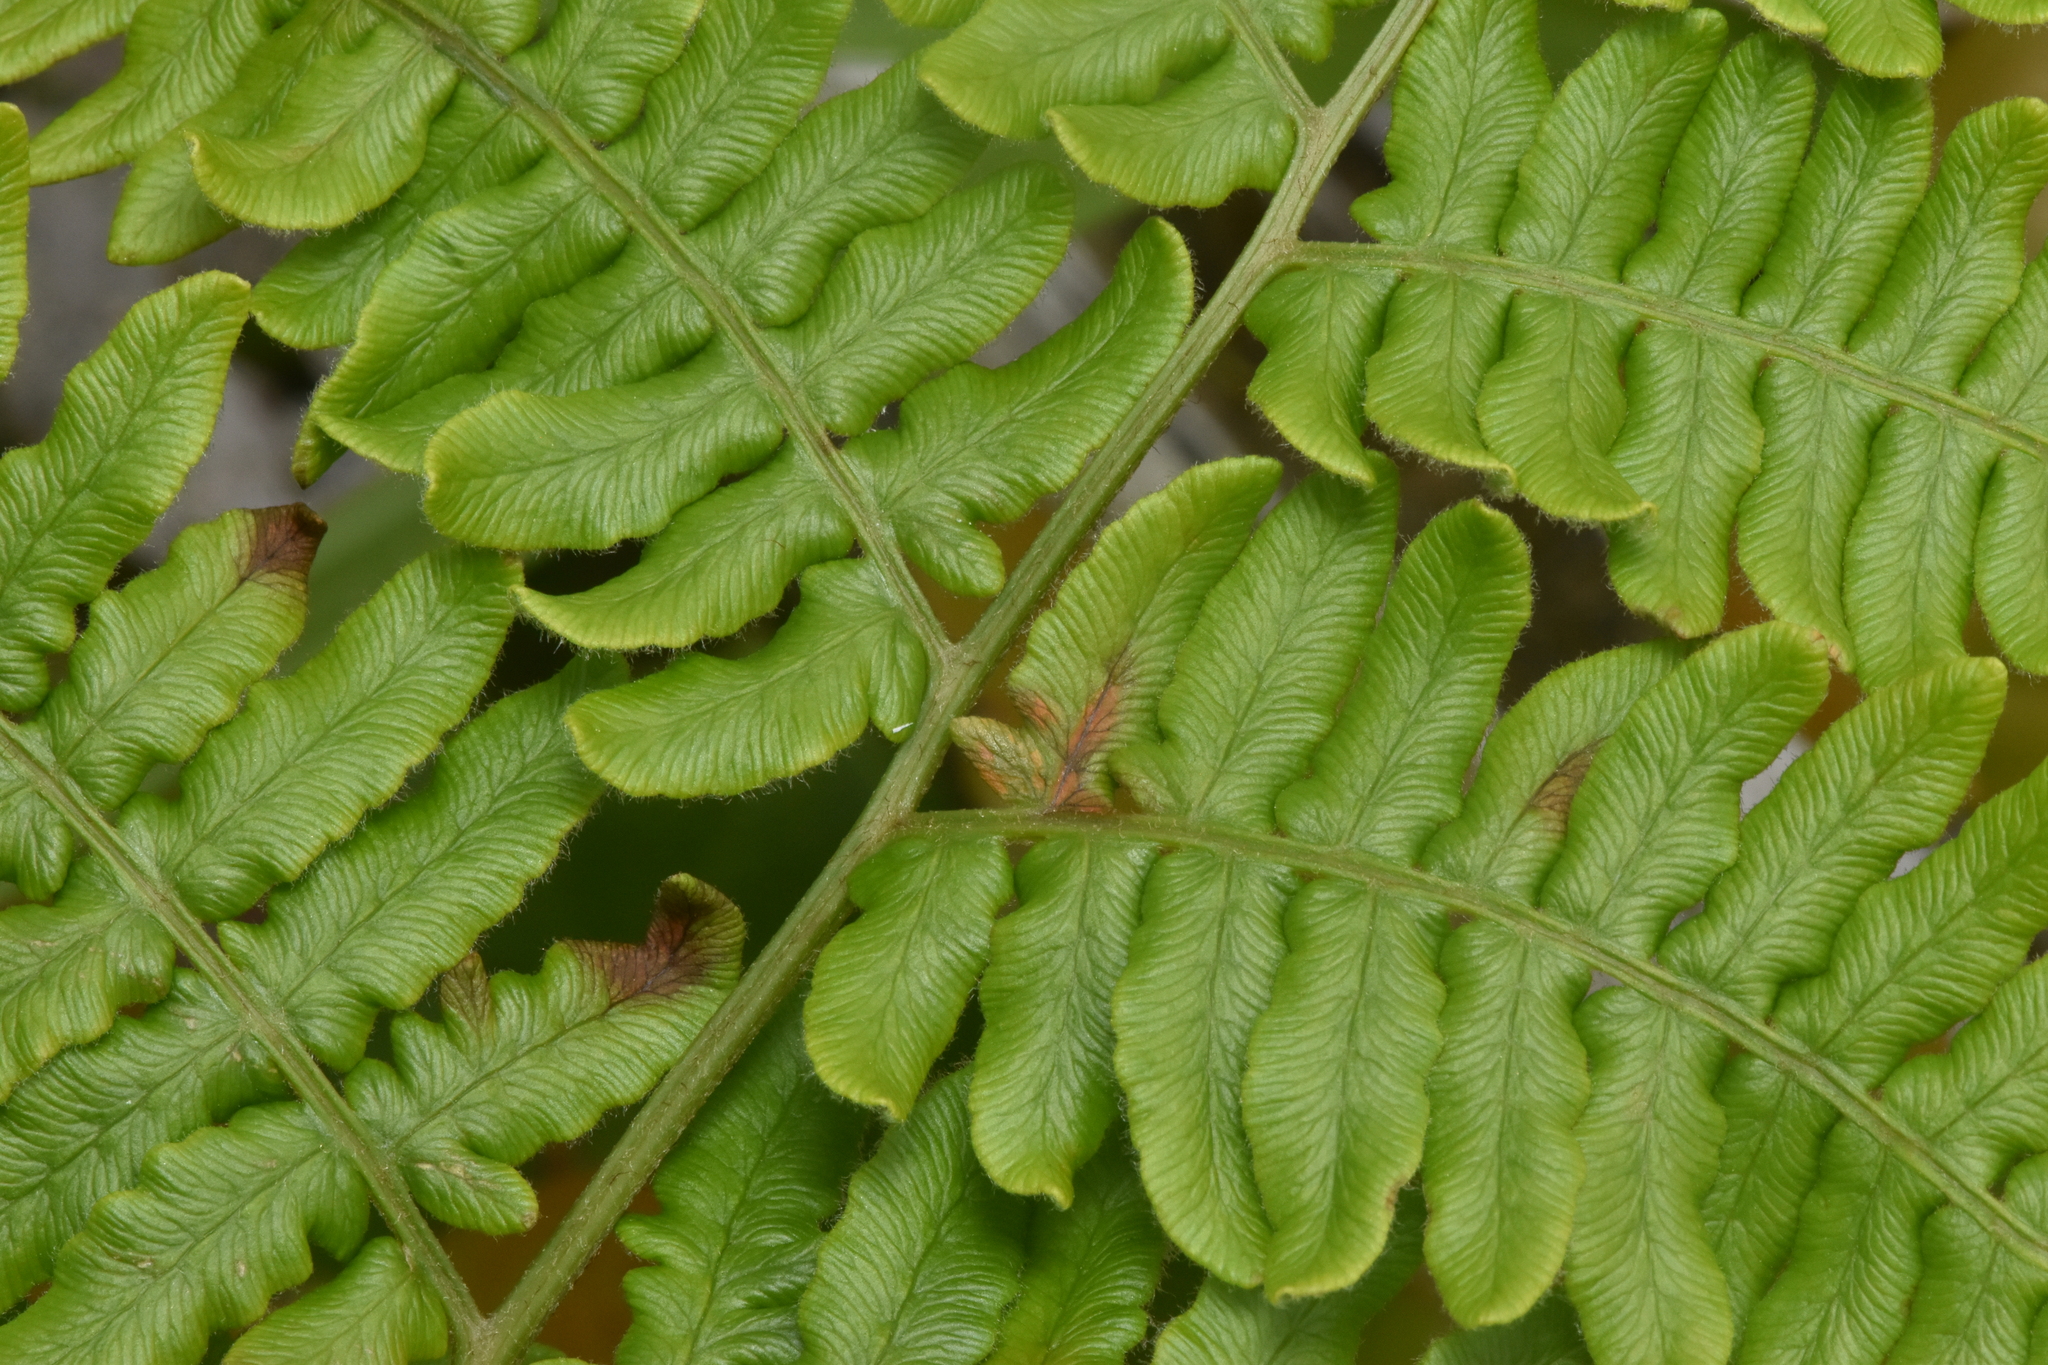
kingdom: Plantae
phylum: Tracheophyta
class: Polypodiopsida
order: Polypodiales
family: Dennstaedtiaceae
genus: Pteridium
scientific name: Pteridium aquilinum
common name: Bracken
